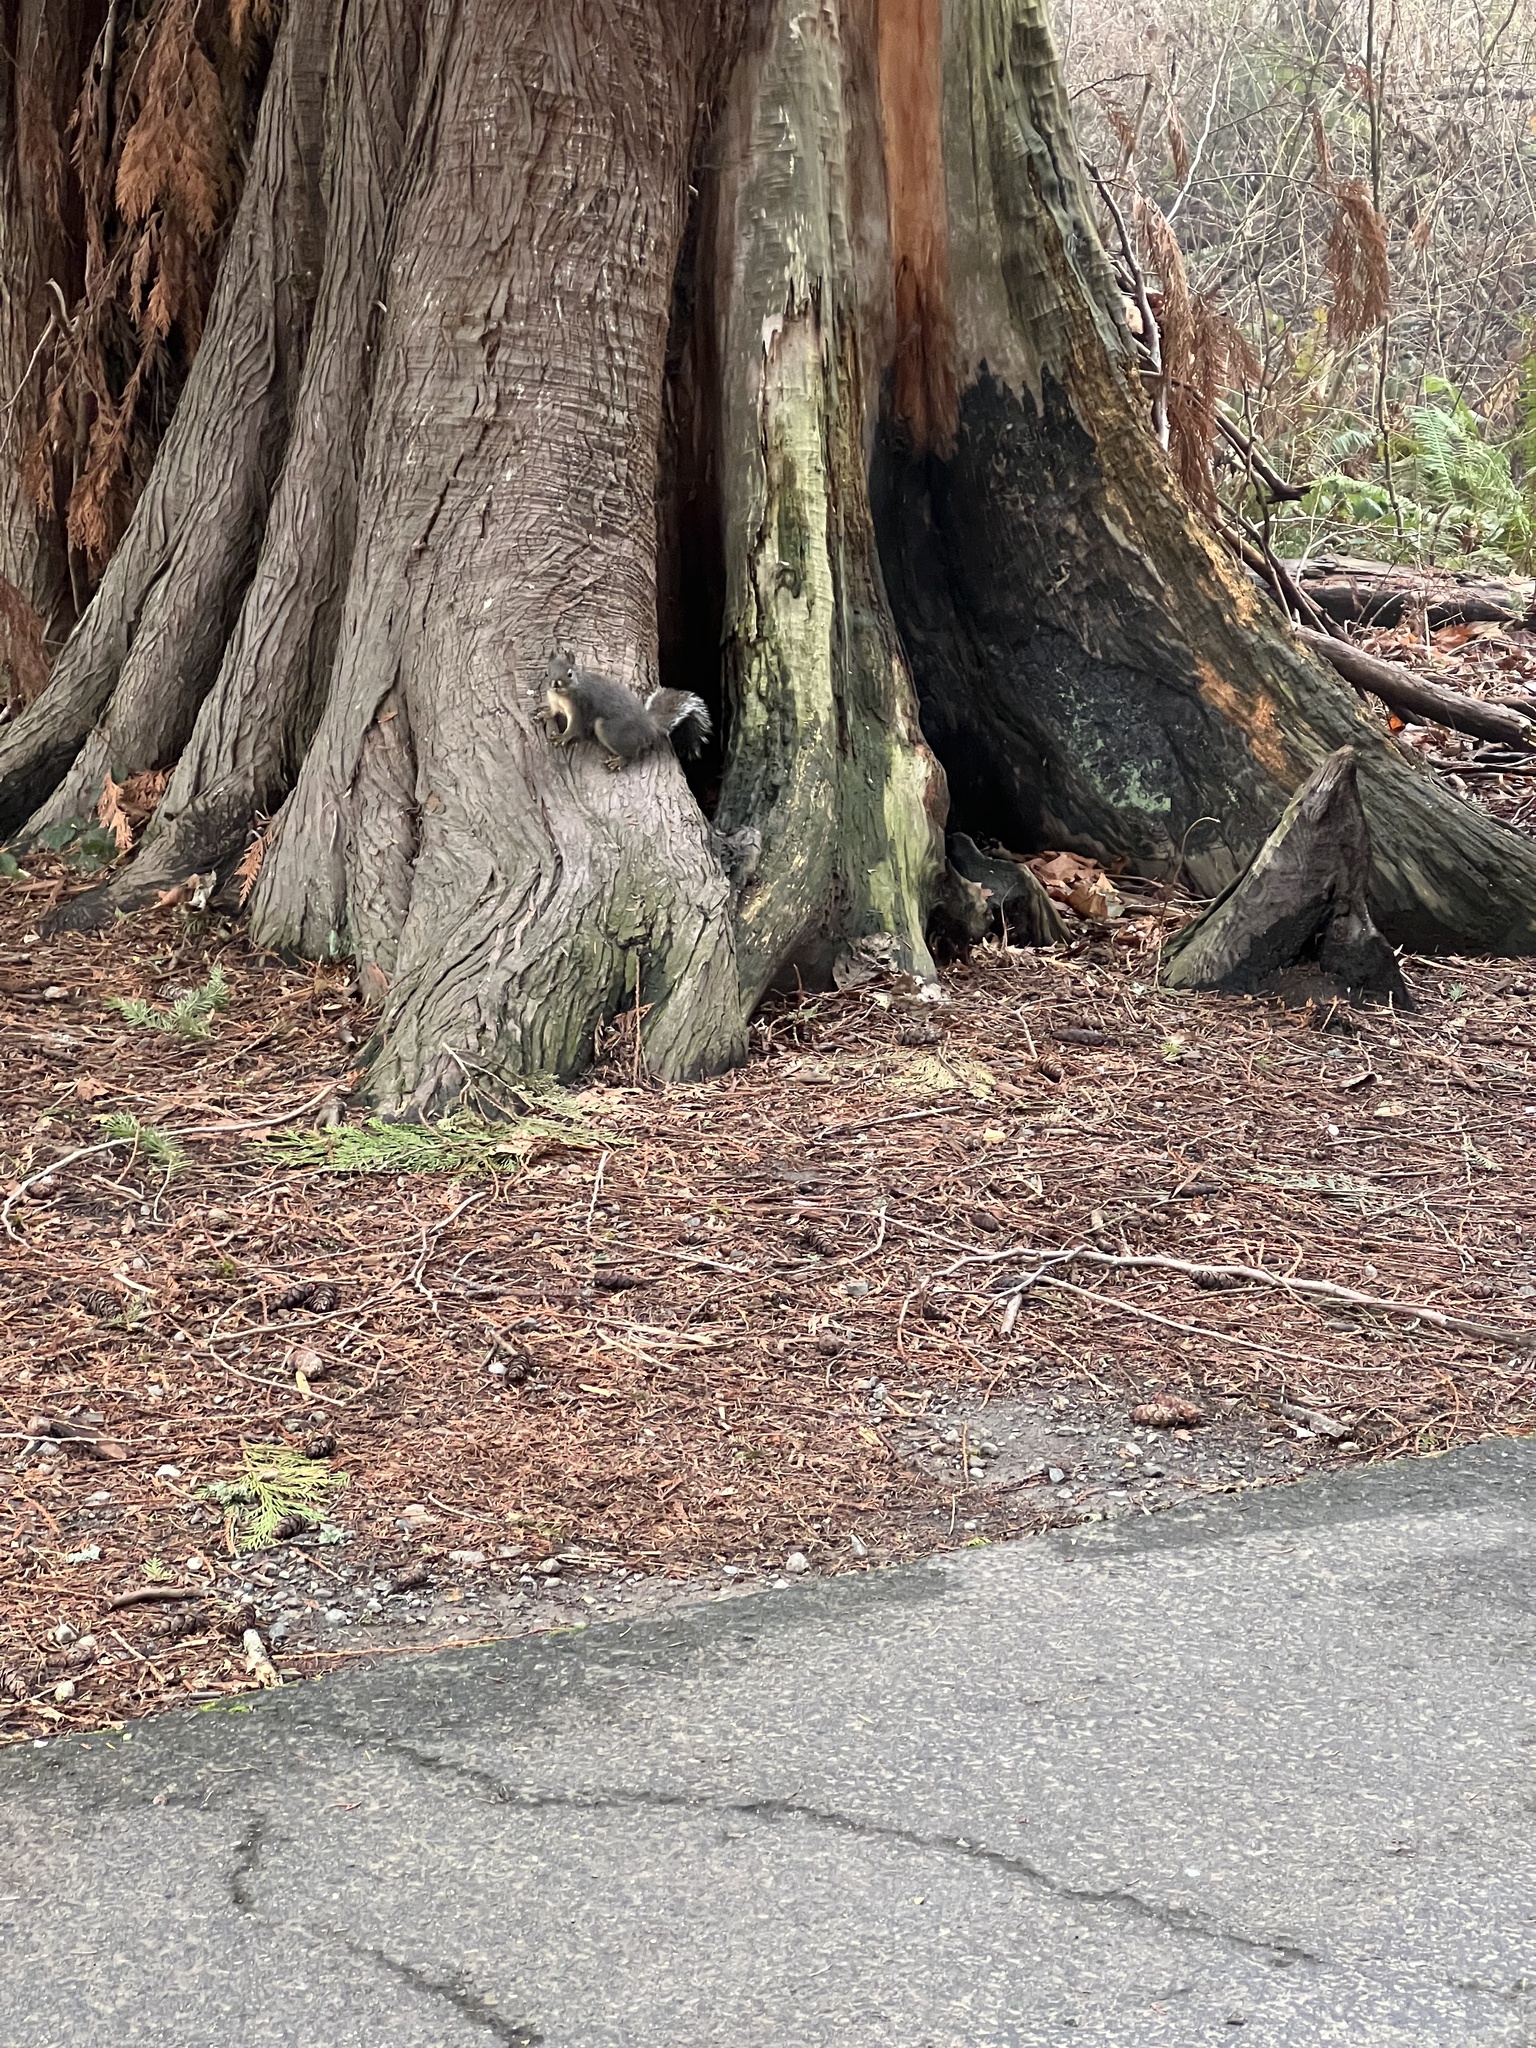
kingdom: Animalia
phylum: Chordata
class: Mammalia
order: Rodentia
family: Sciuridae
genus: Tamiasciurus
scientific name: Tamiasciurus douglasii
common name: Douglas's squirrel
